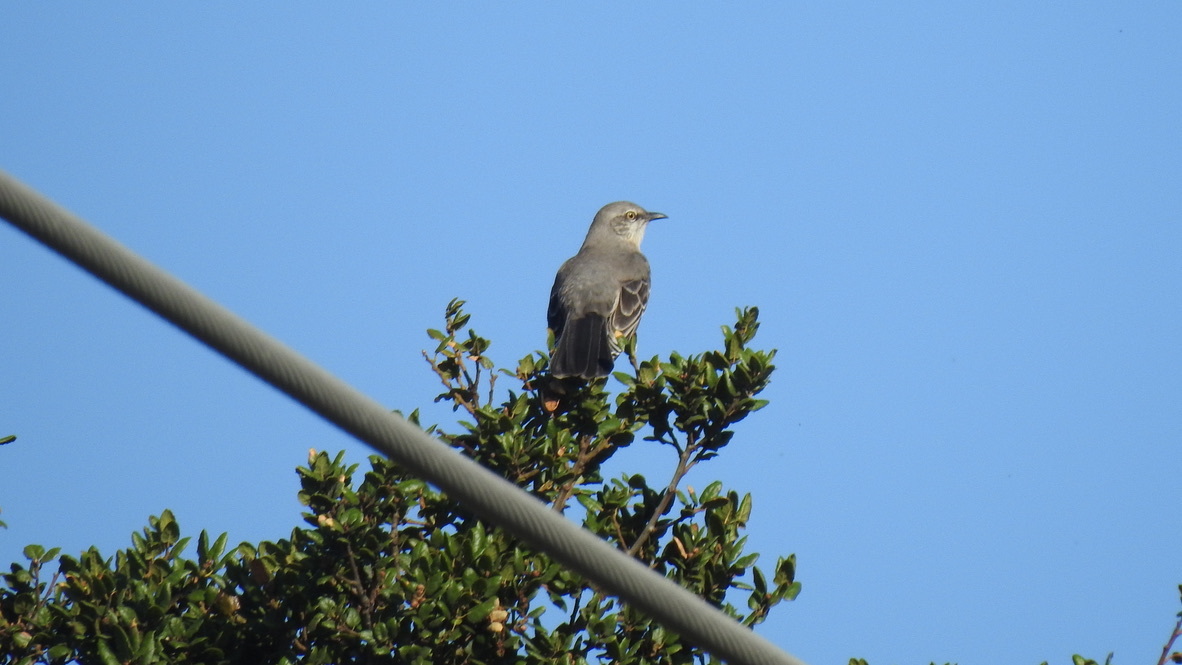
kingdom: Animalia
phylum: Chordata
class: Aves
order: Passeriformes
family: Mimidae
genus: Mimus
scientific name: Mimus polyglottos
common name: Northern mockingbird
